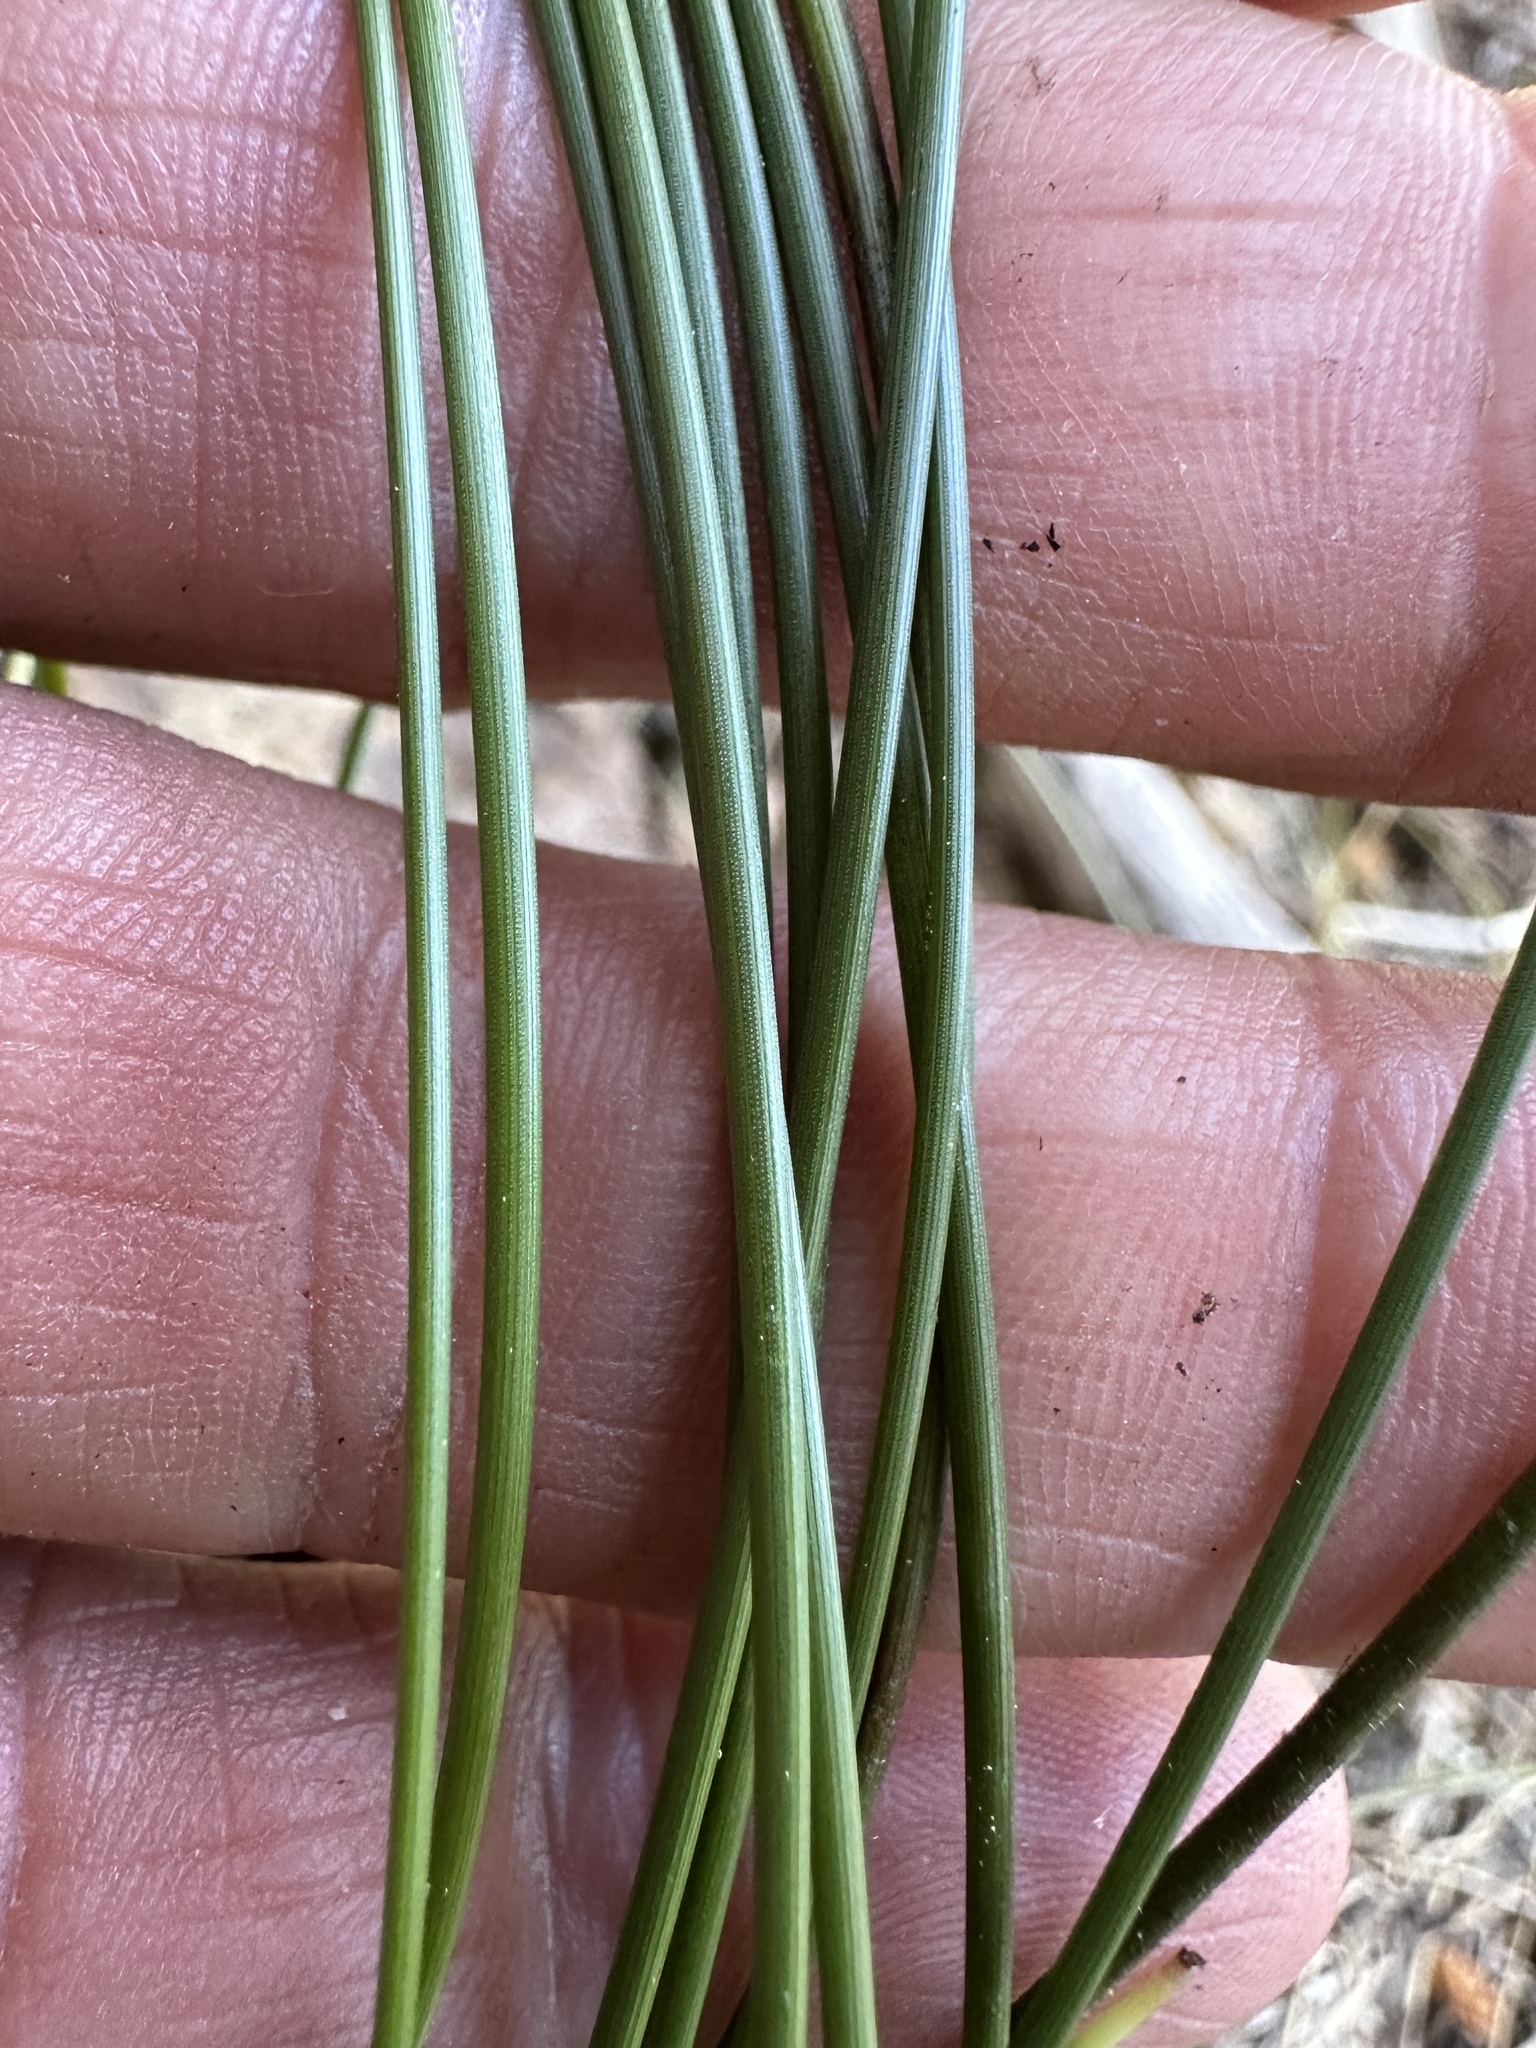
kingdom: Plantae
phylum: Tracheophyta
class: Liliopsida
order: Poales
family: Cyperaceae
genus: Carex
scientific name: Carex multicaulis
